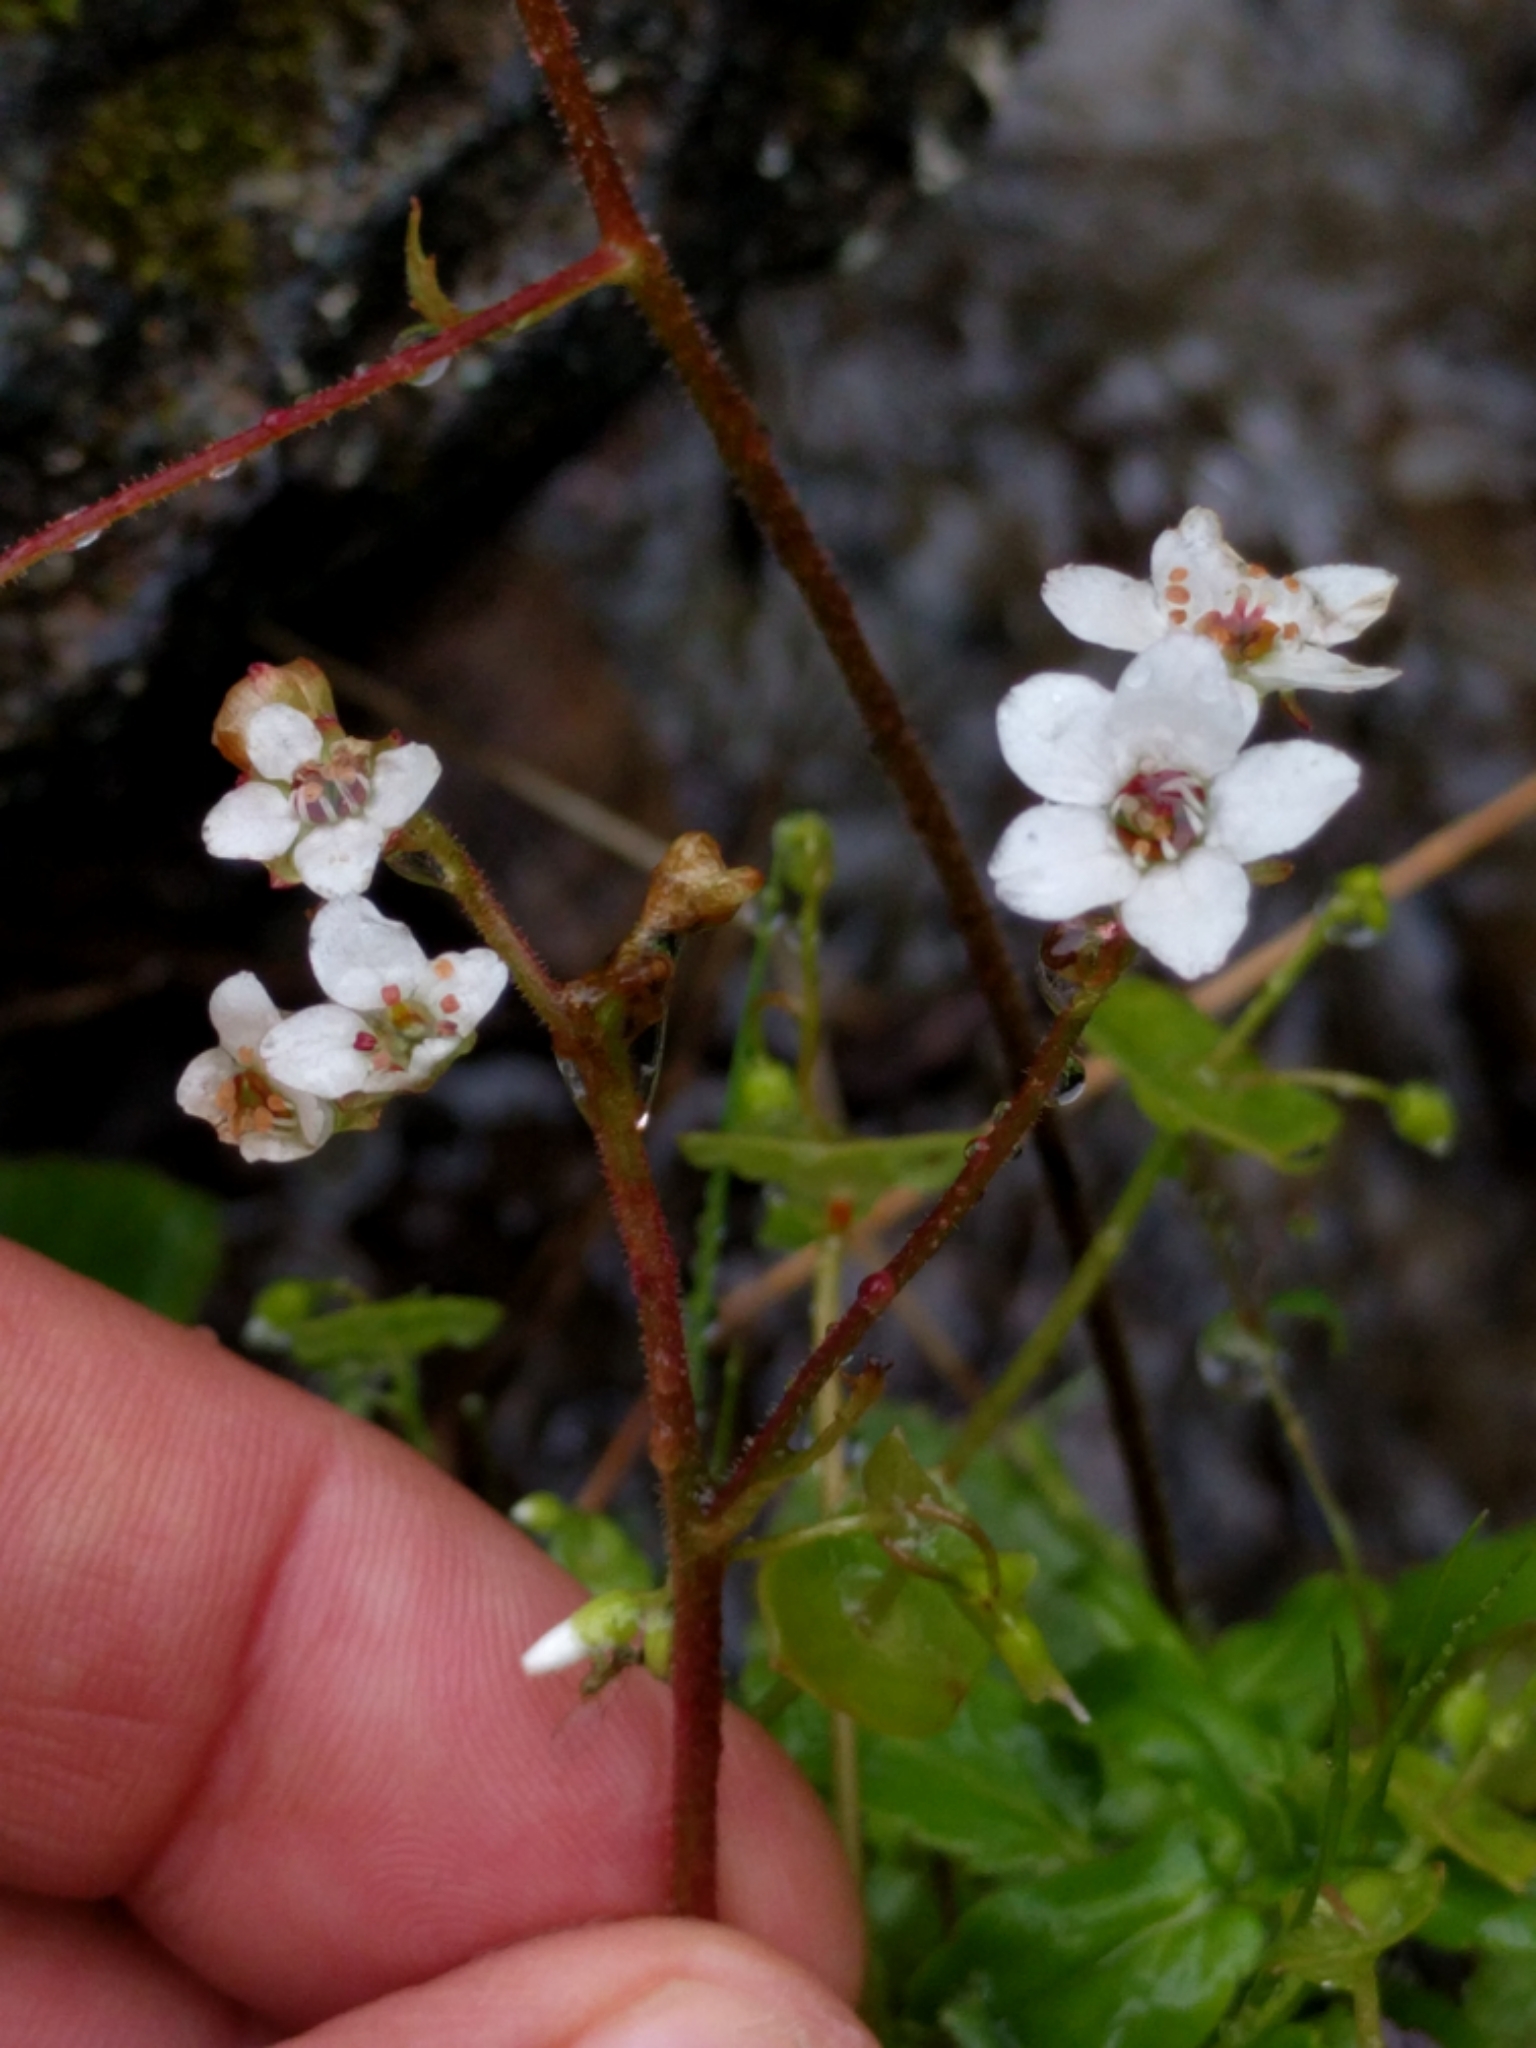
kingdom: Plantae
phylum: Tracheophyta
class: Magnoliopsida
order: Saxifragales
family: Saxifragaceae
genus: Micranthes
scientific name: Micranthes californica
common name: California saxifrage
